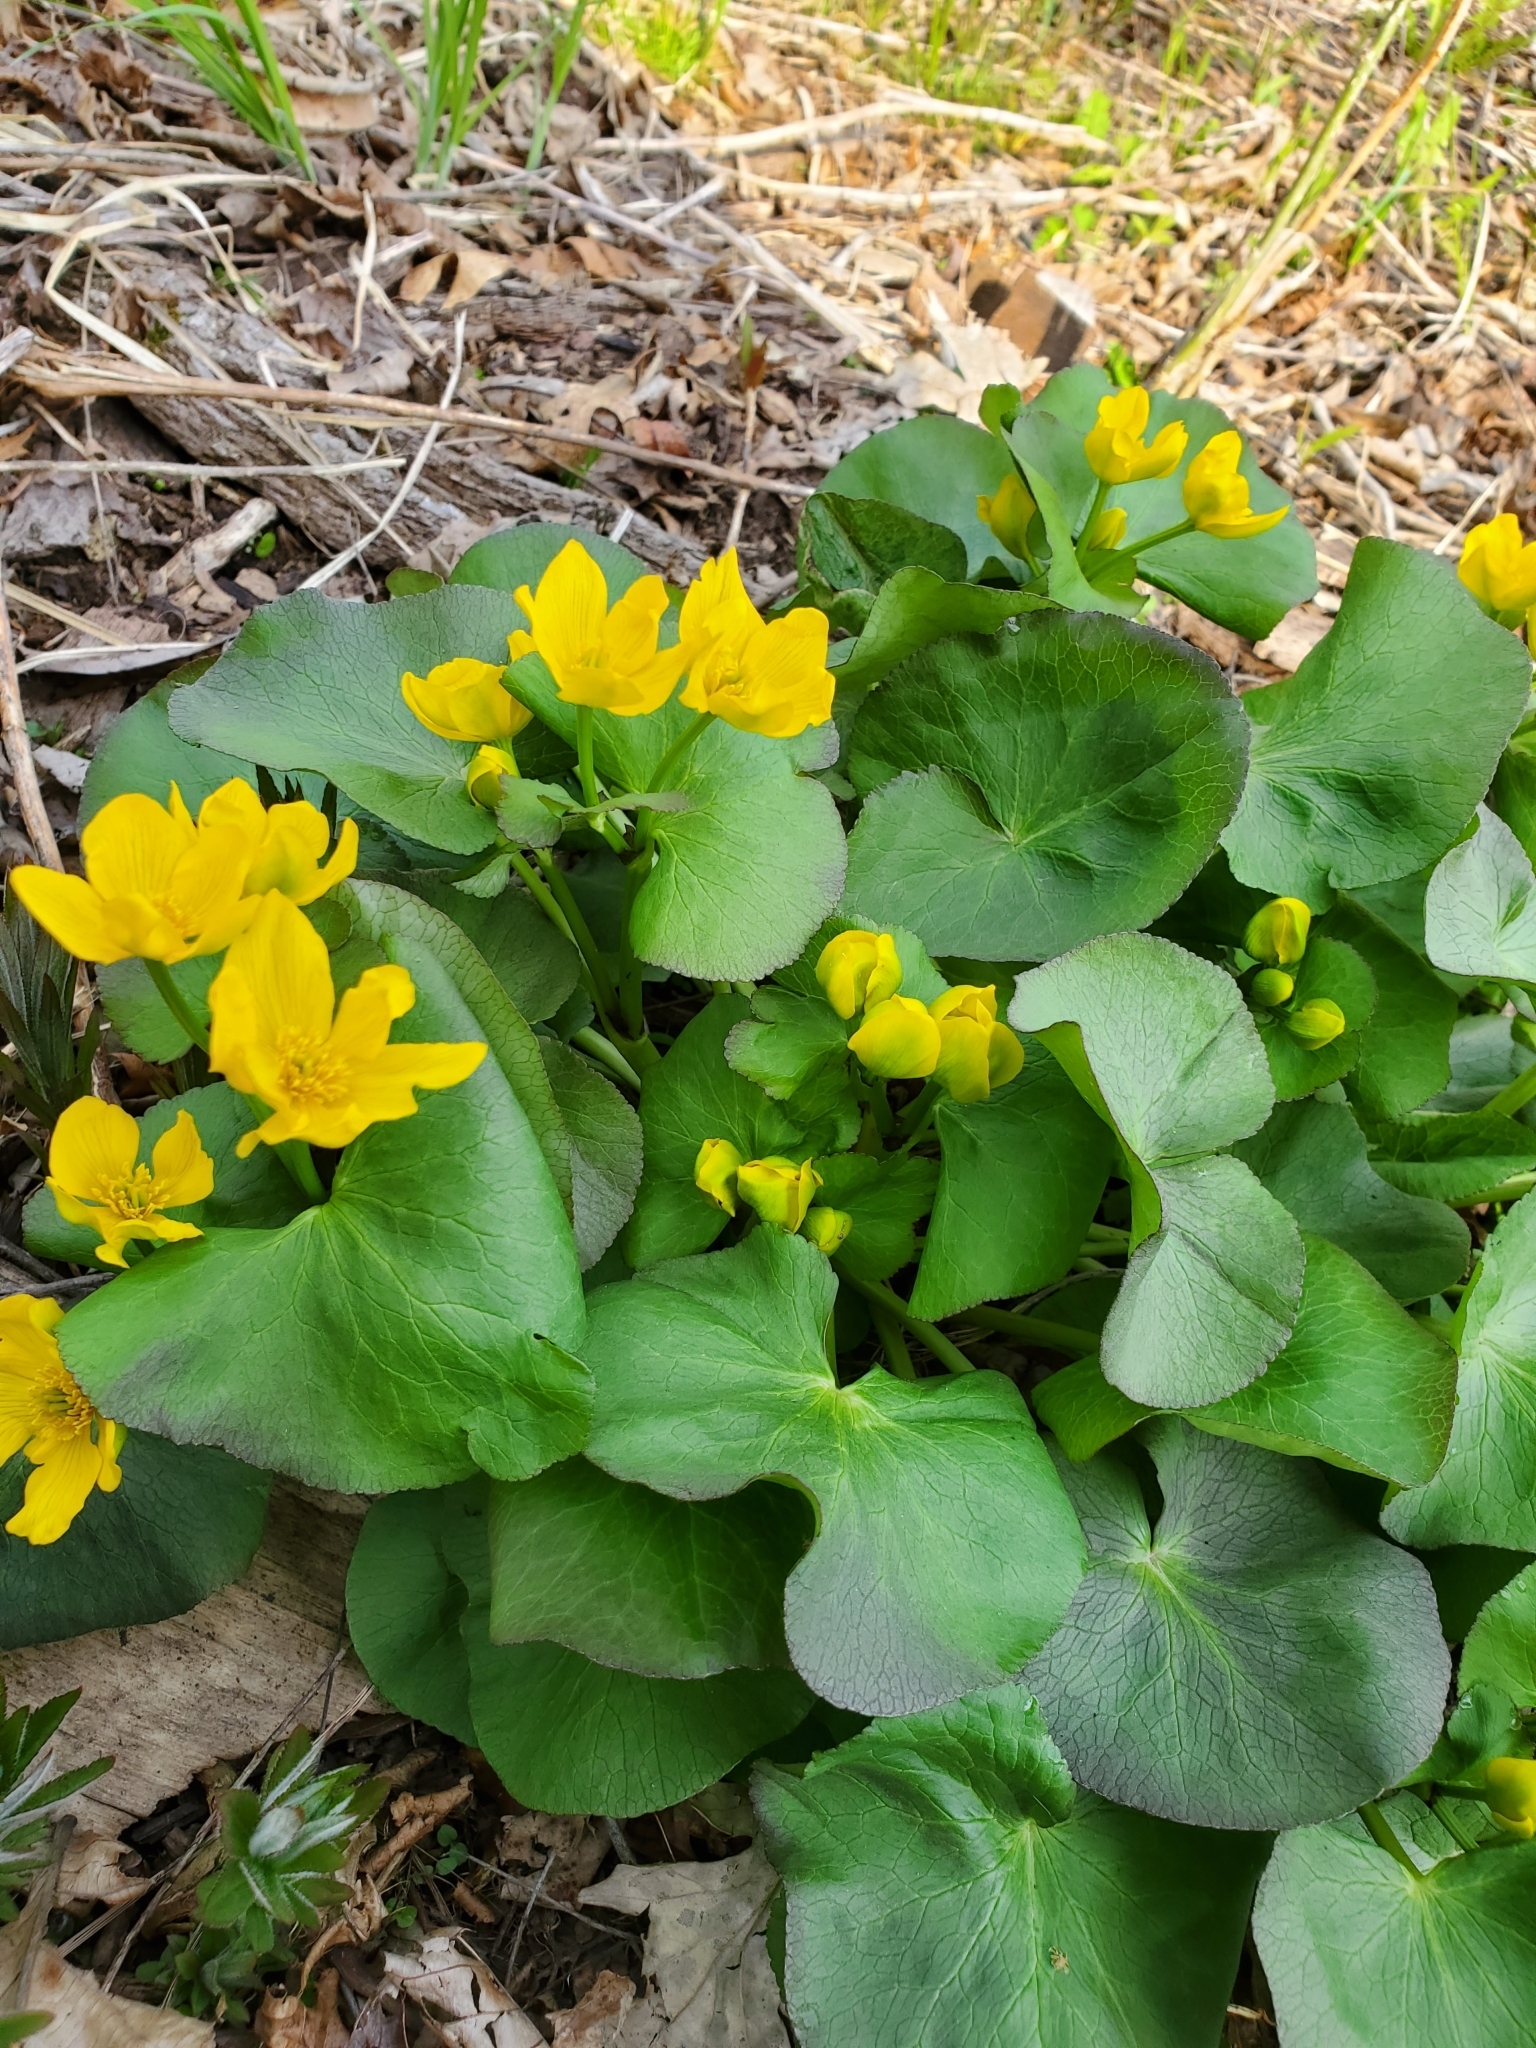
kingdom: Plantae
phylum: Tracheophyta
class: Magnoliopsida
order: Ranunculales
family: Ranunculaceae
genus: Caltha
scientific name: Caltha palustris
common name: Marsh marigold
